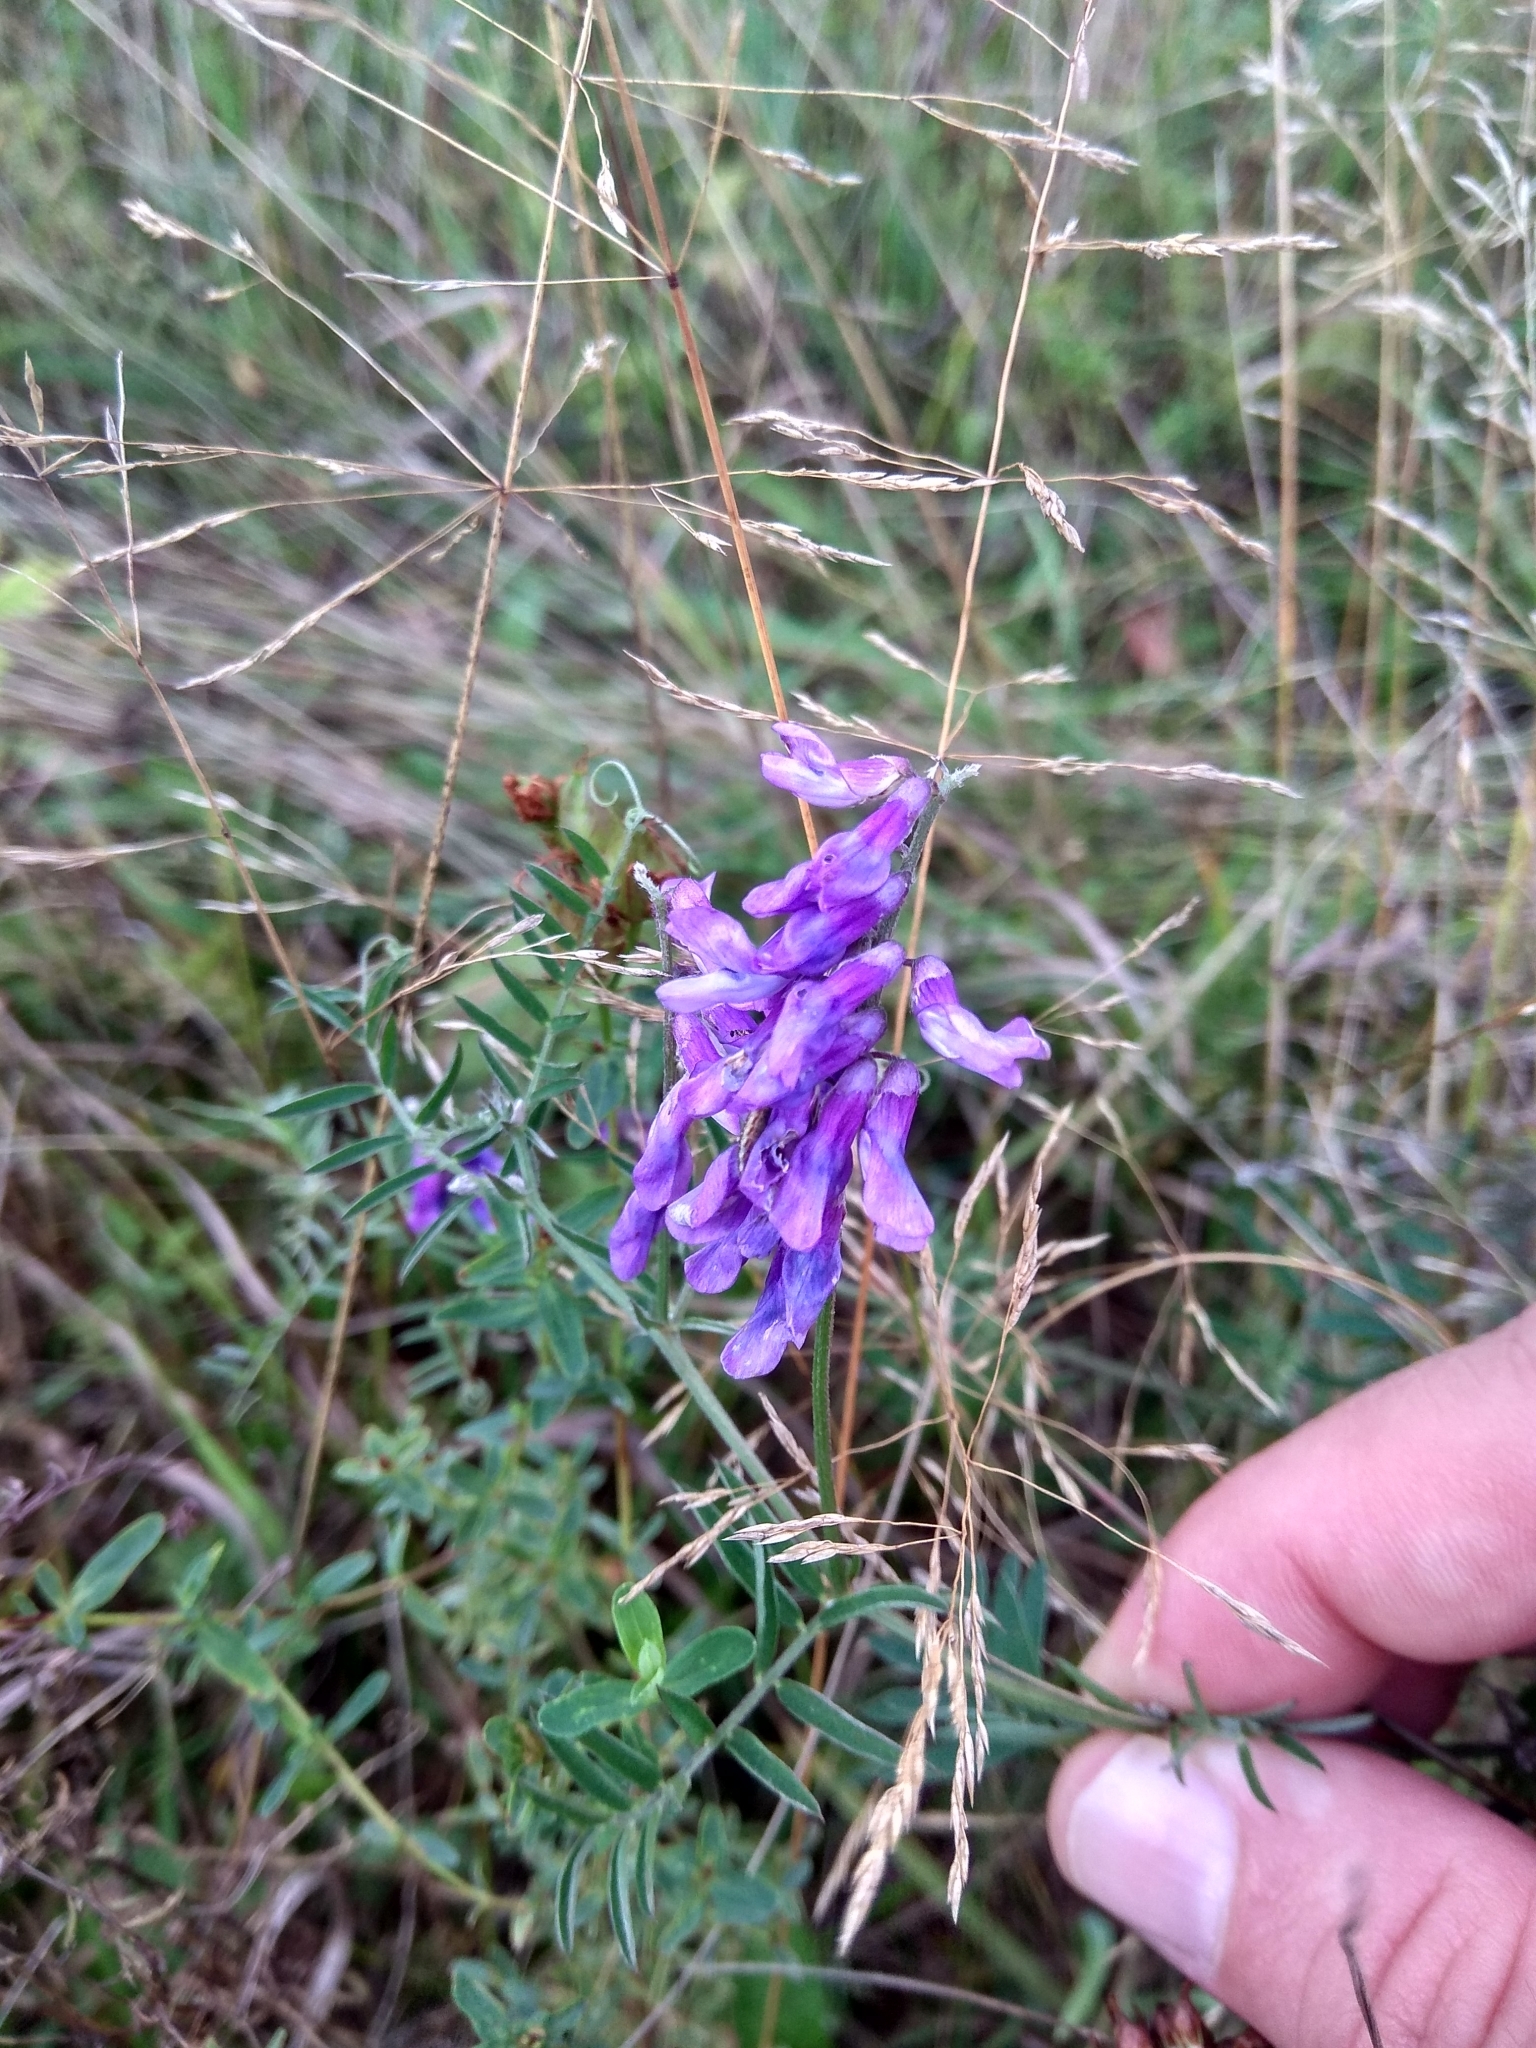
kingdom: Plantae
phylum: Tracheophyta
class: Magnoliopsida
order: Fabales
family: Fabaceae
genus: Vicia
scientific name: Vicia cracca
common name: Bird vetch
